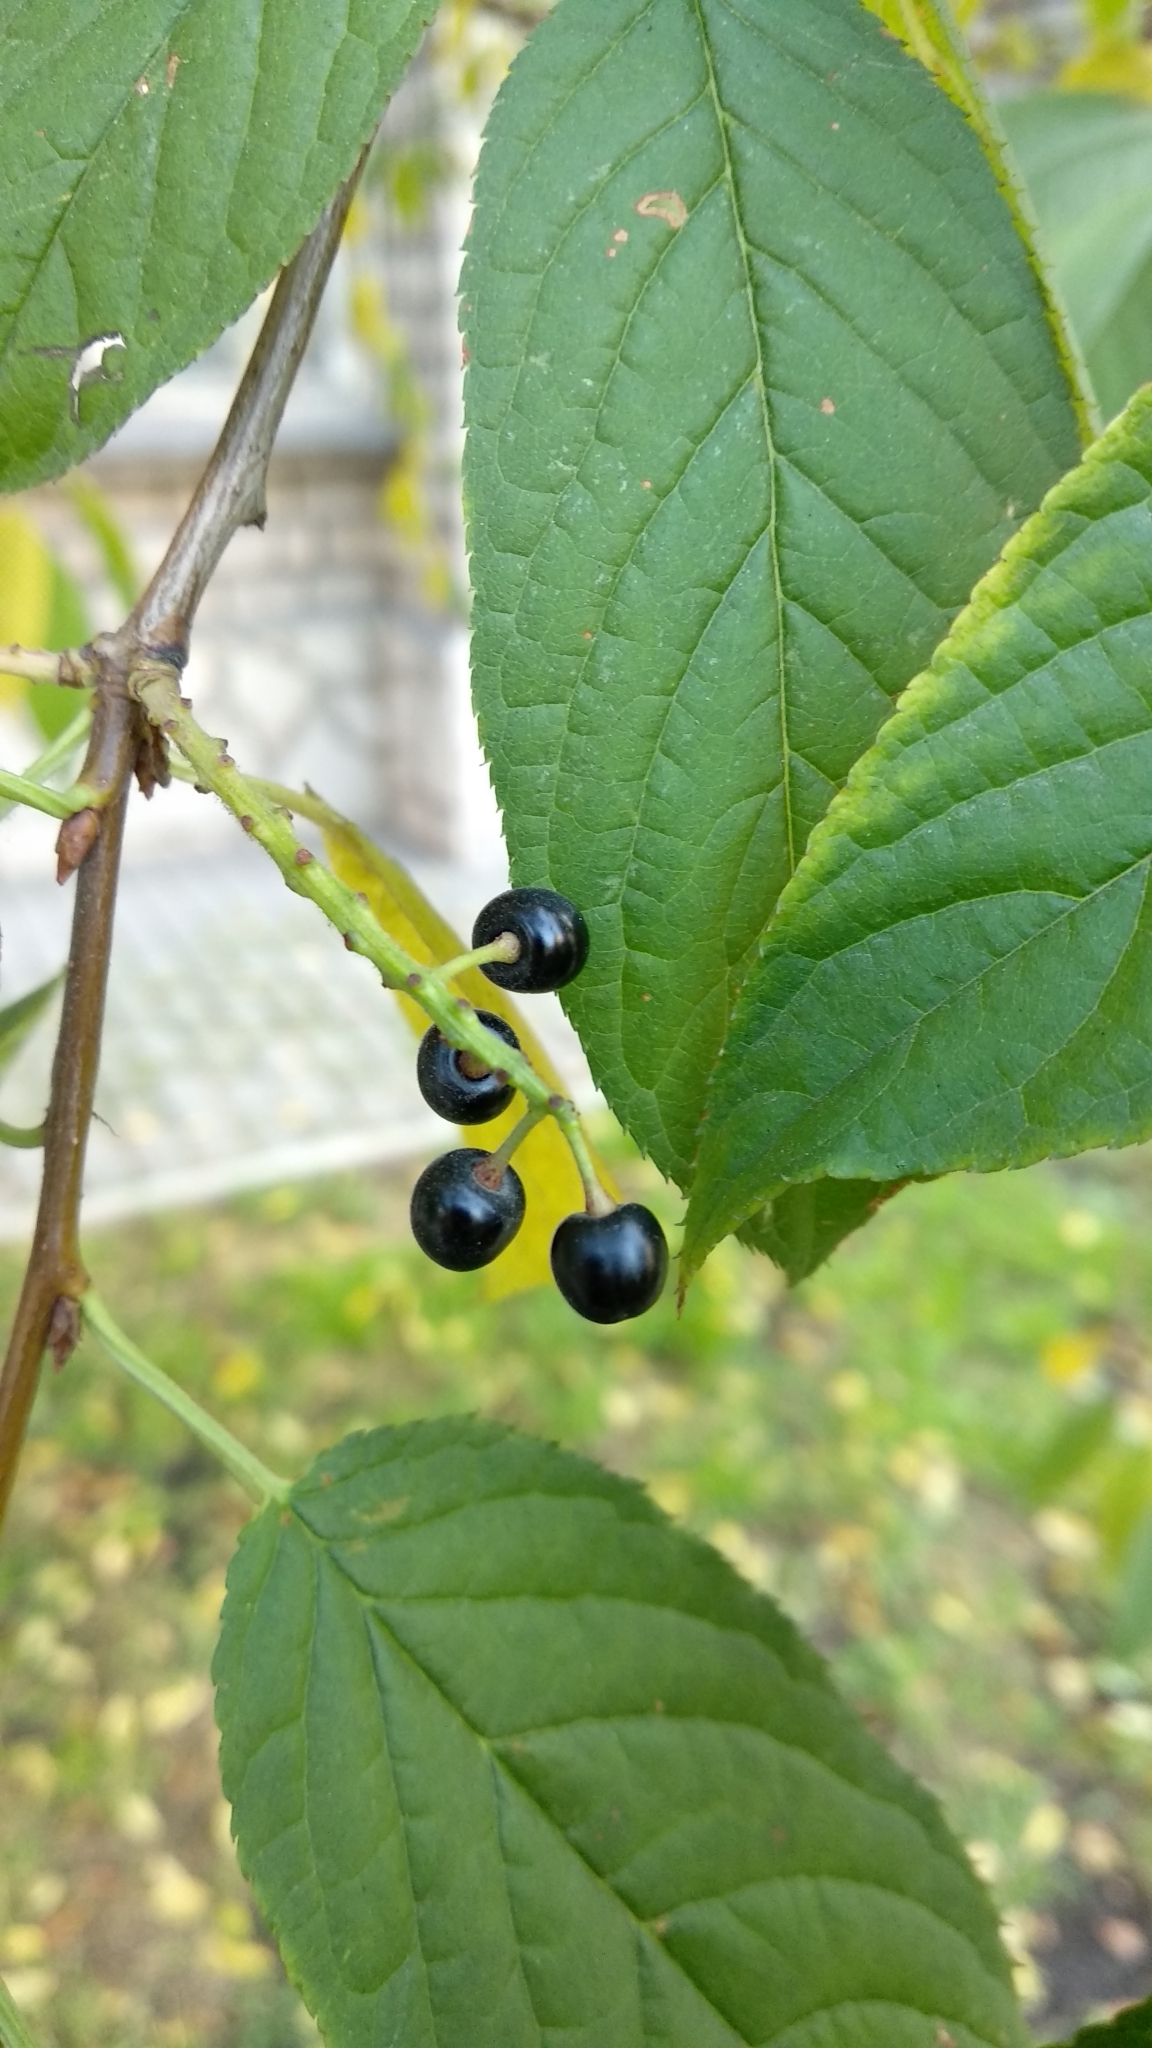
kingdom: Plantae
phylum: Tracheophyta
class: Magnoliopsida
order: Rosales
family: Rosaceae
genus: Prunus
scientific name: Prunus glandulifolia
